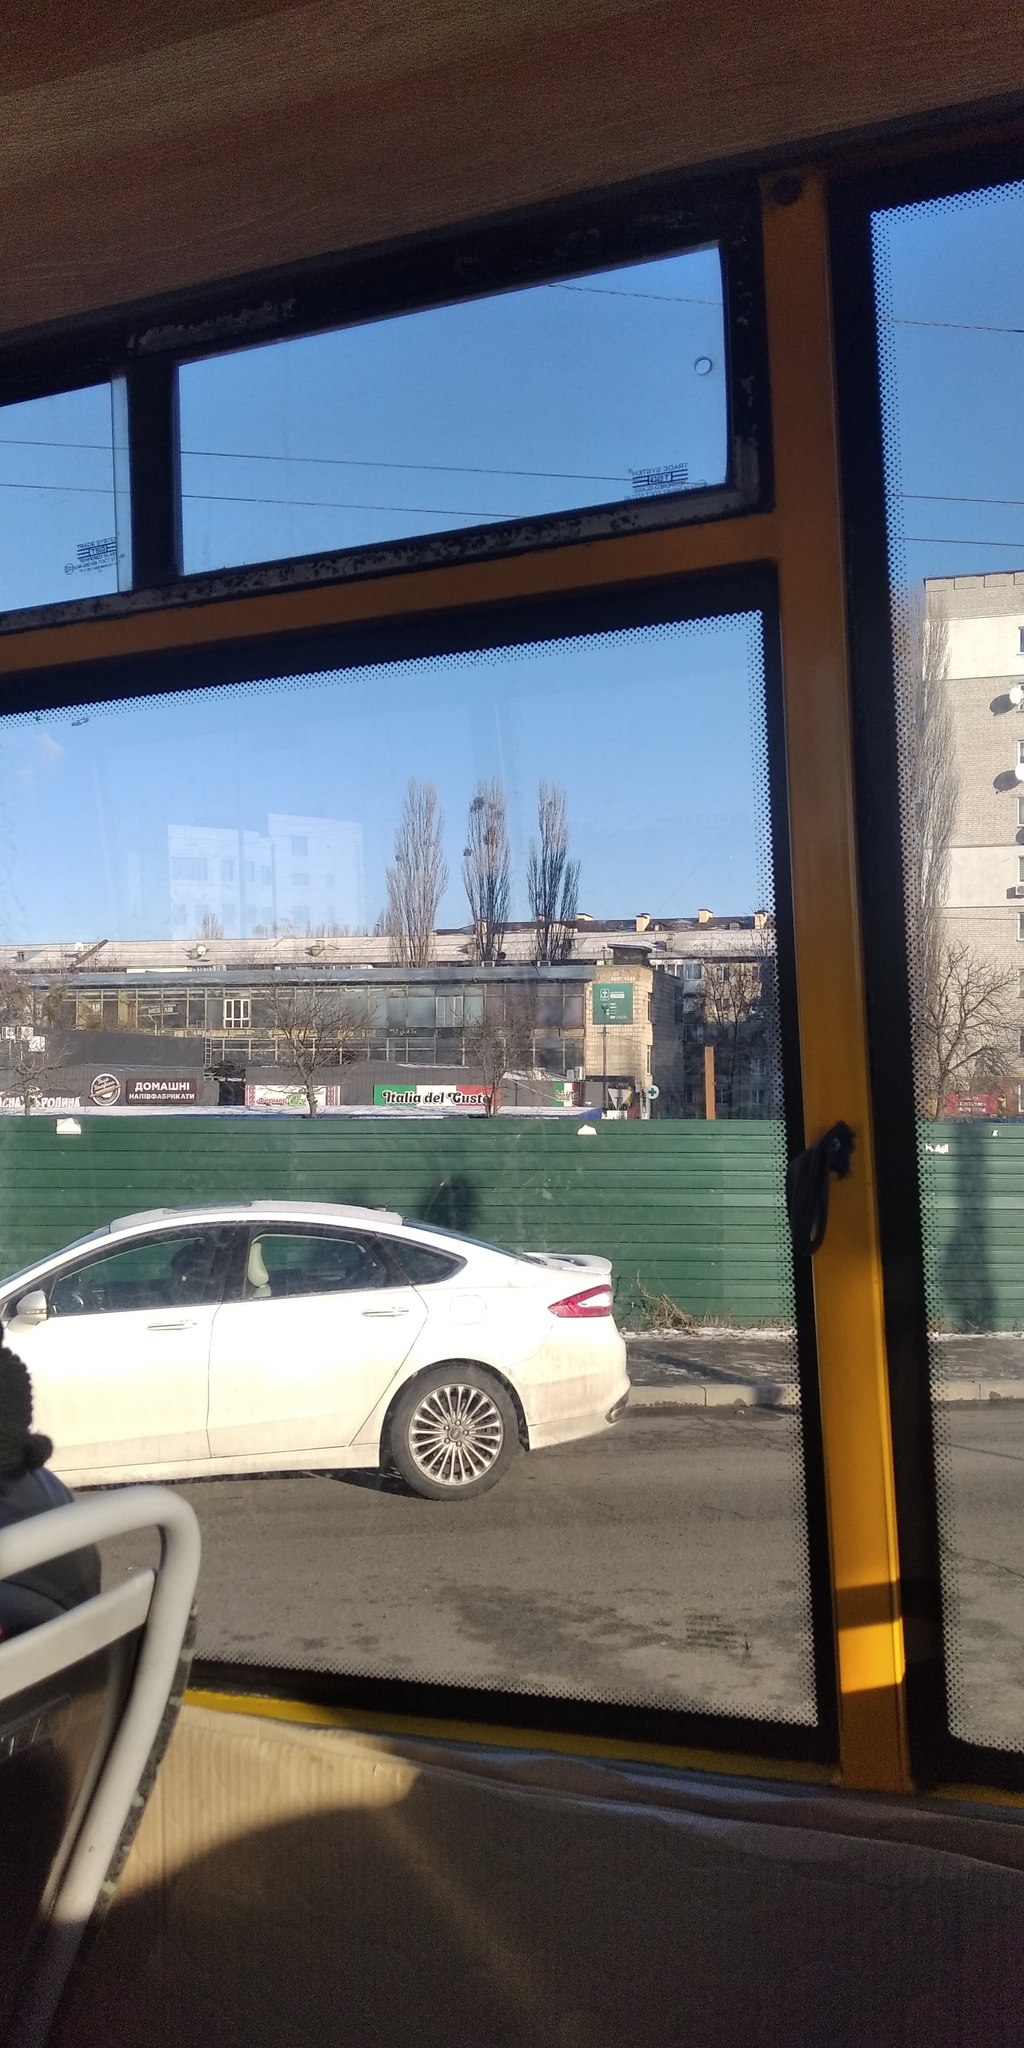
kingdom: Plantae
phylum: Tracheophyta
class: Magnoliopsida
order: Santalales
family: Viscaceae
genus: Viscum
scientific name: Viscum album
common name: Mistletoe
